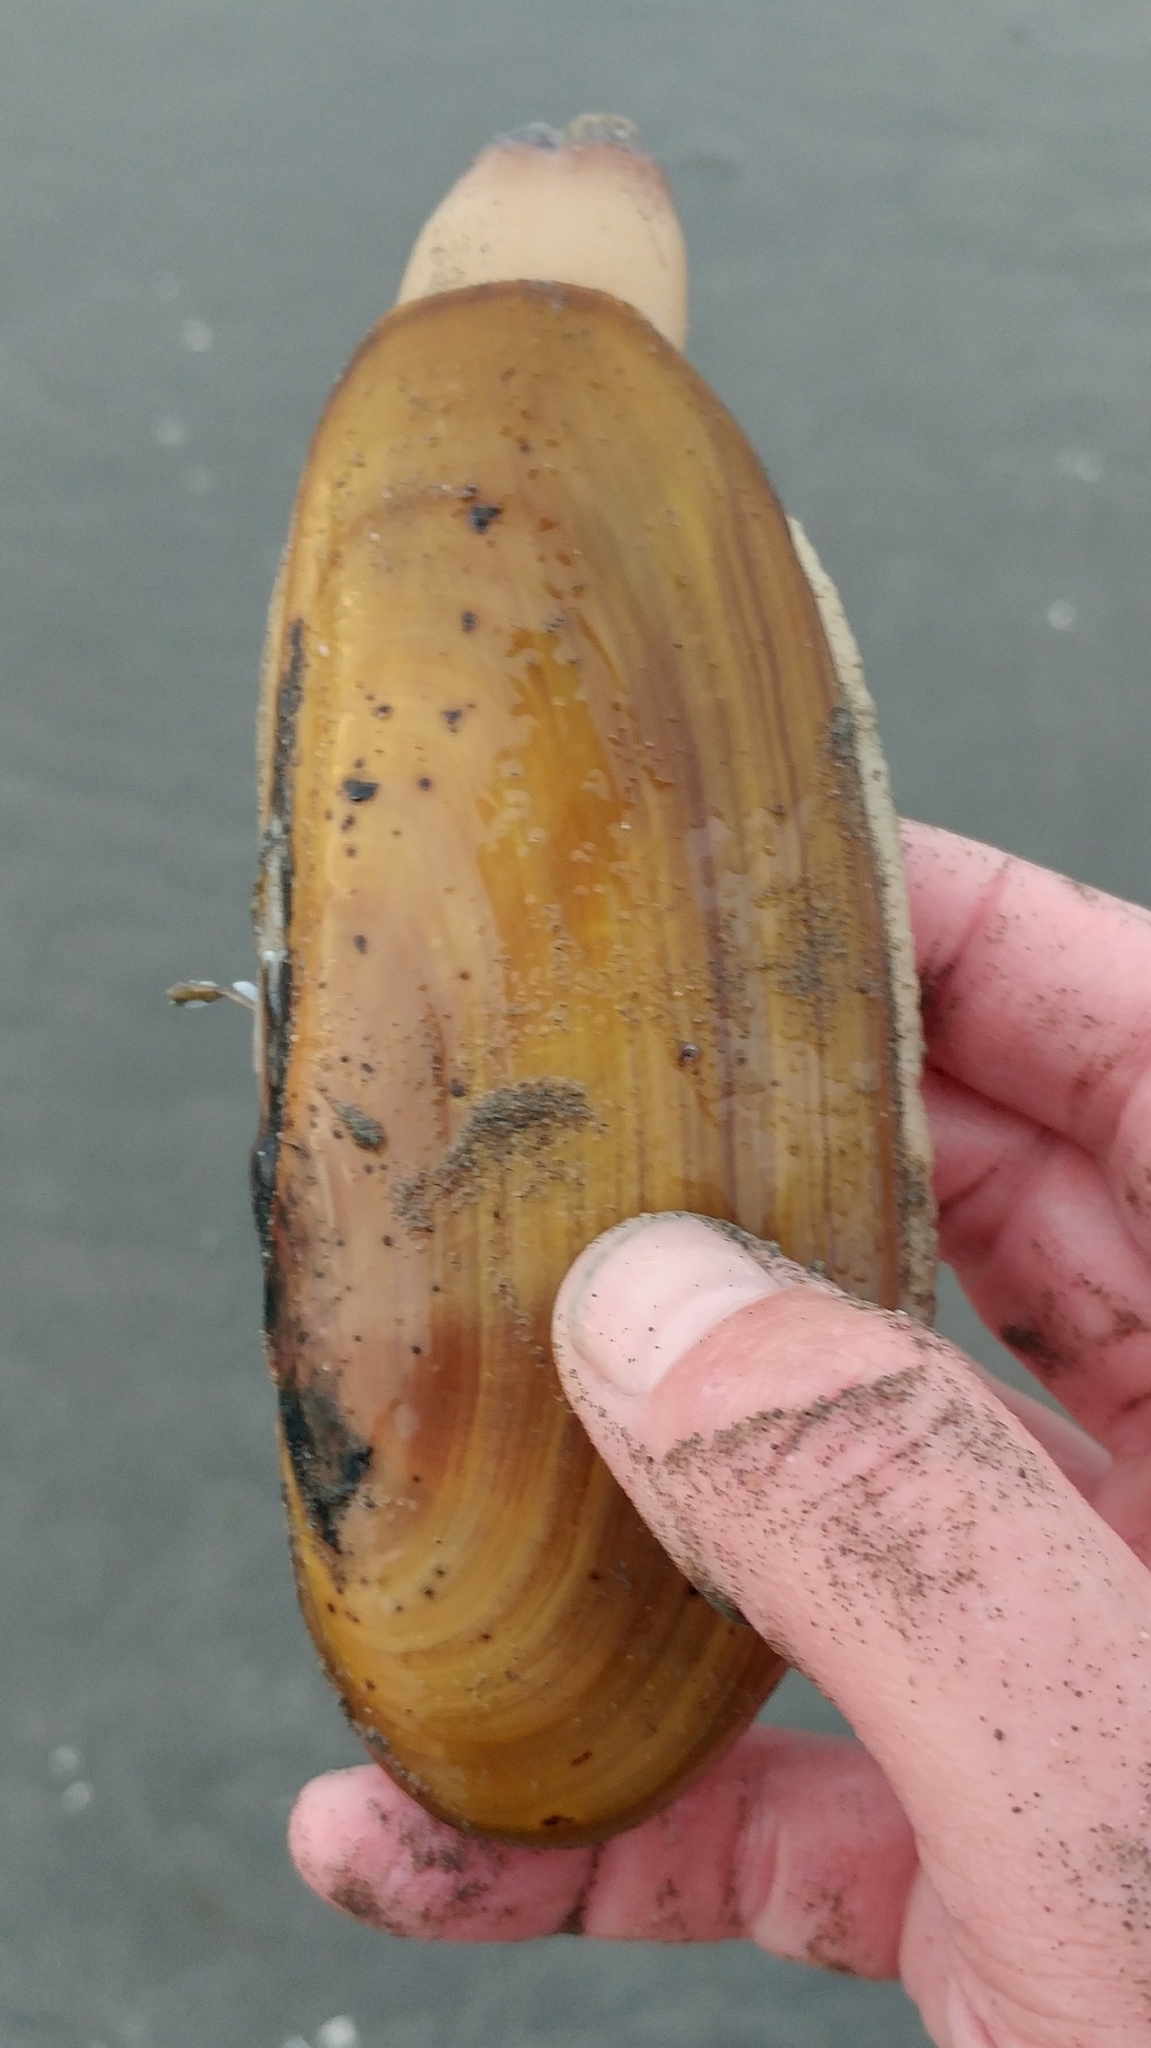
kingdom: Animalia
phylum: Mollusca
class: Bivalvia
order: Adapedonta
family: Pharidae
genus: Siliqua
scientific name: Siliqua patula
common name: Pacific razor clam
